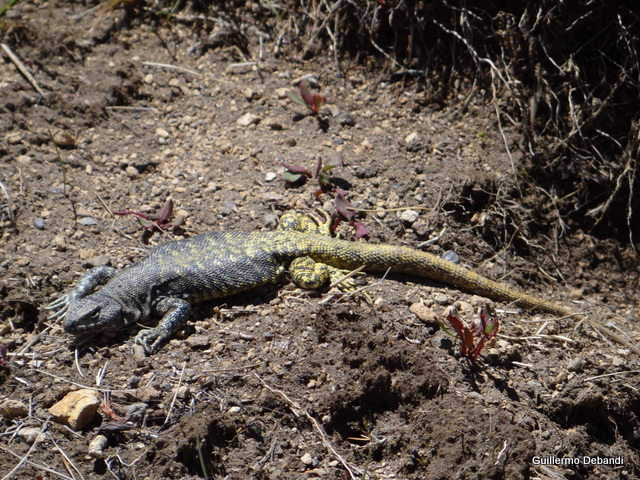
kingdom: Animalia
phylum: Chordata
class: Squamata
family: Liolaemidae
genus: Liolaemus
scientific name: Liolaemus flavipiceus
